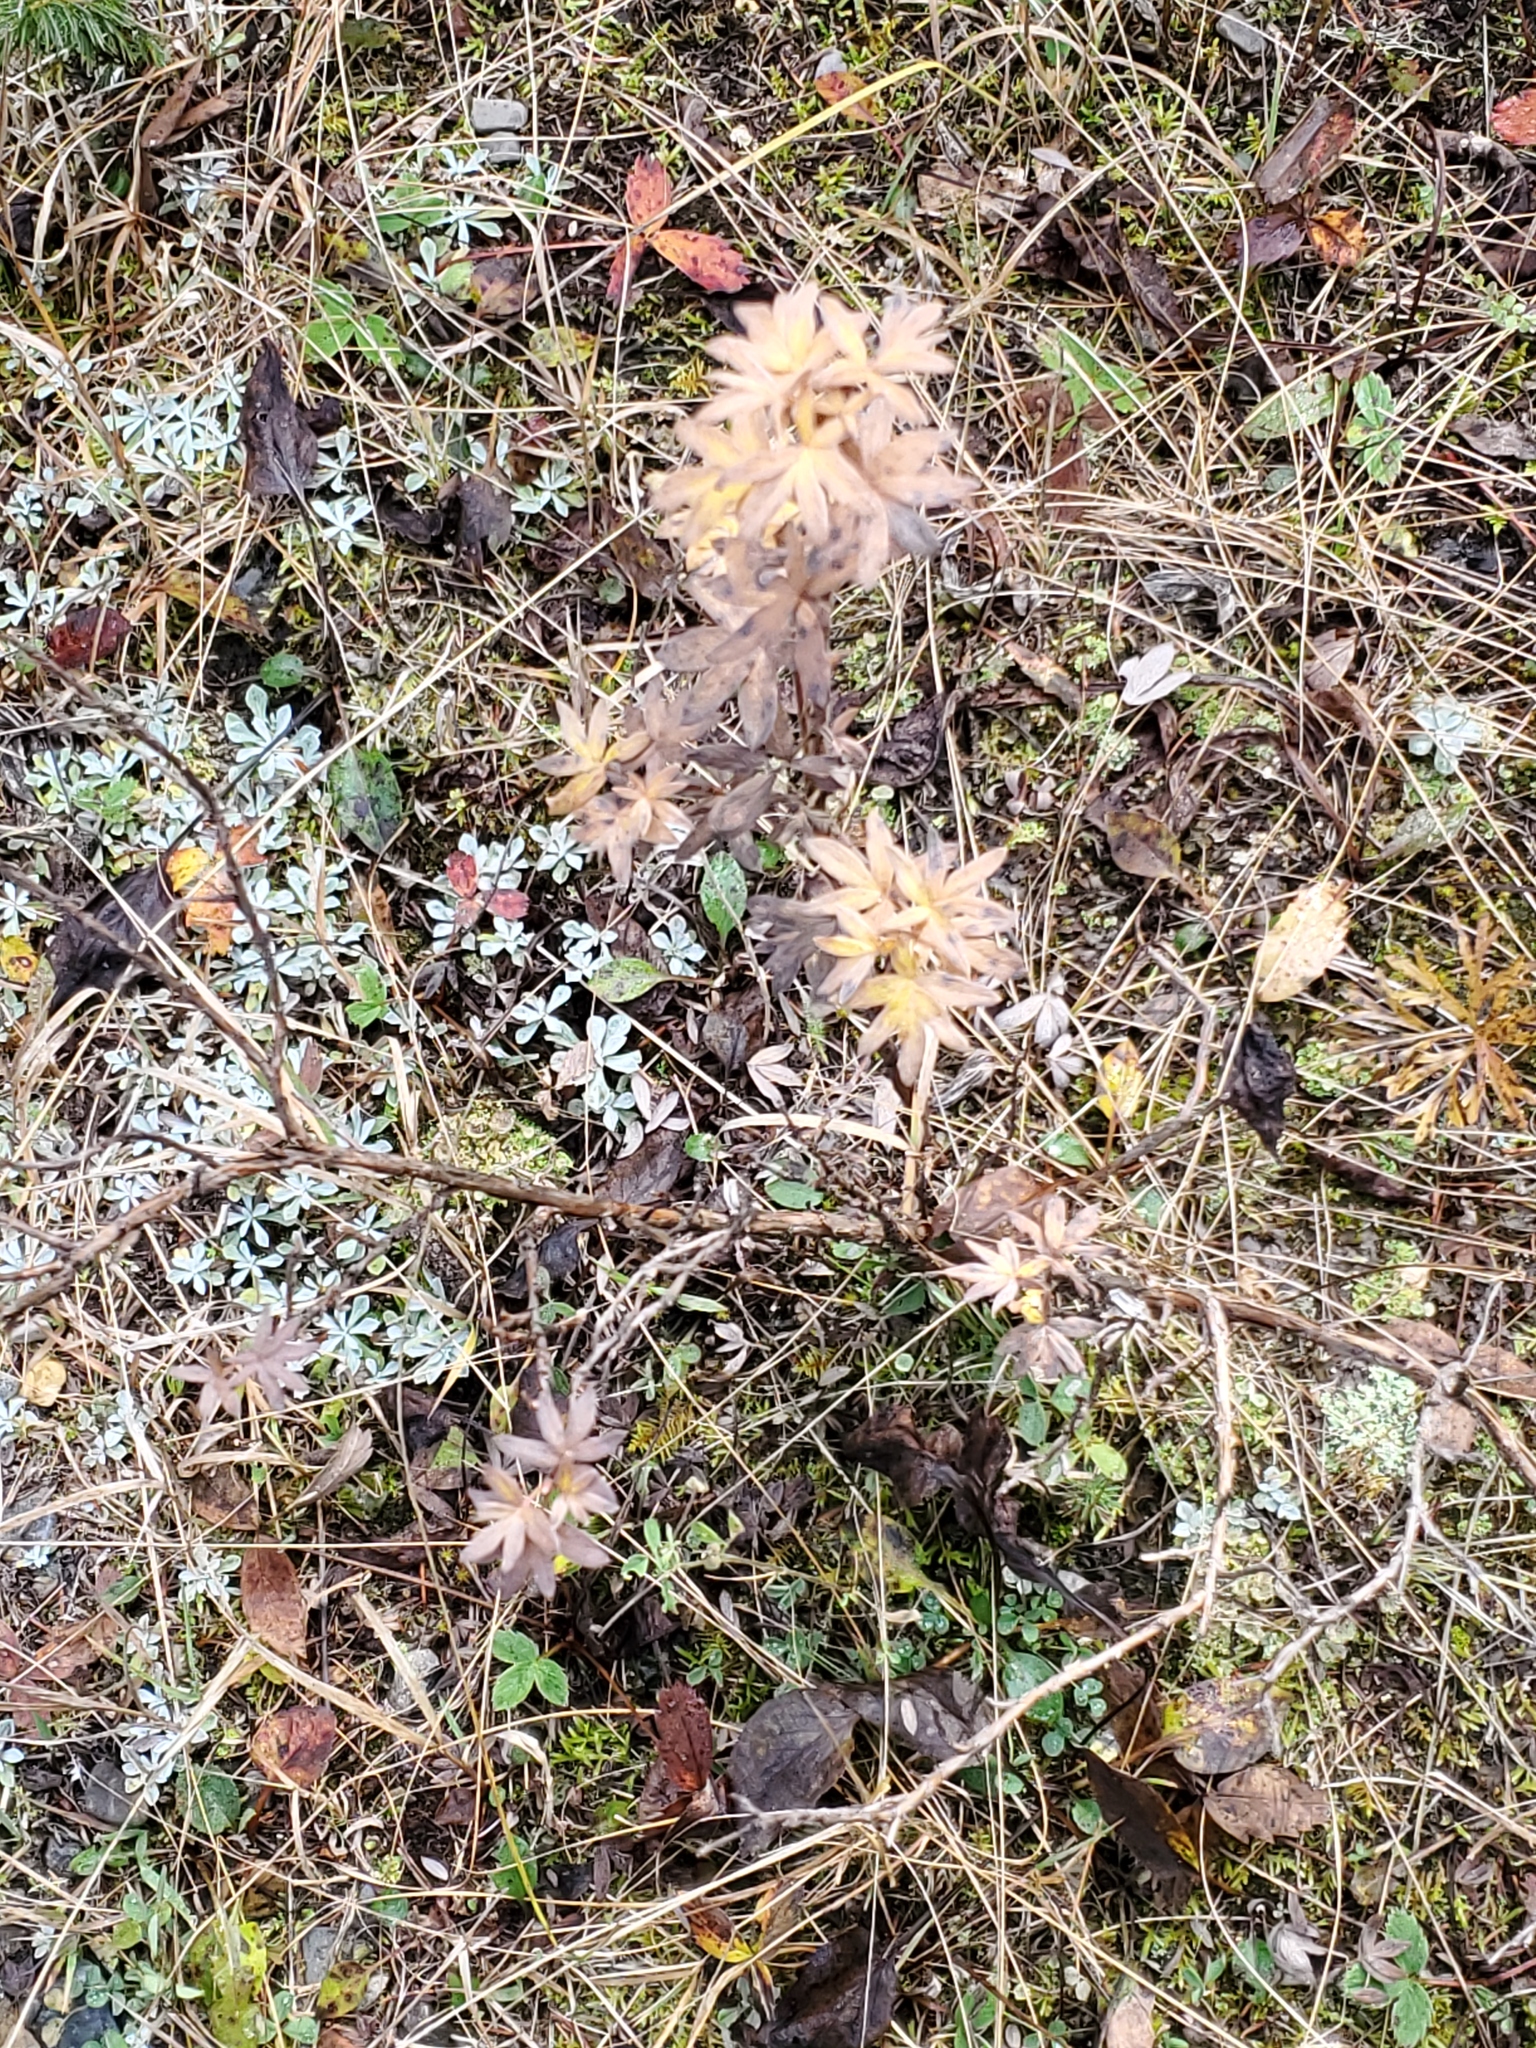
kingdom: Plantae
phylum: Tracheophyta
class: Magnoliopsida
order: Rosales
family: Rosaceae
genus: Dasiphora
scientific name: Dasiphora fruticosa
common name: Shrubby cinquefoil
